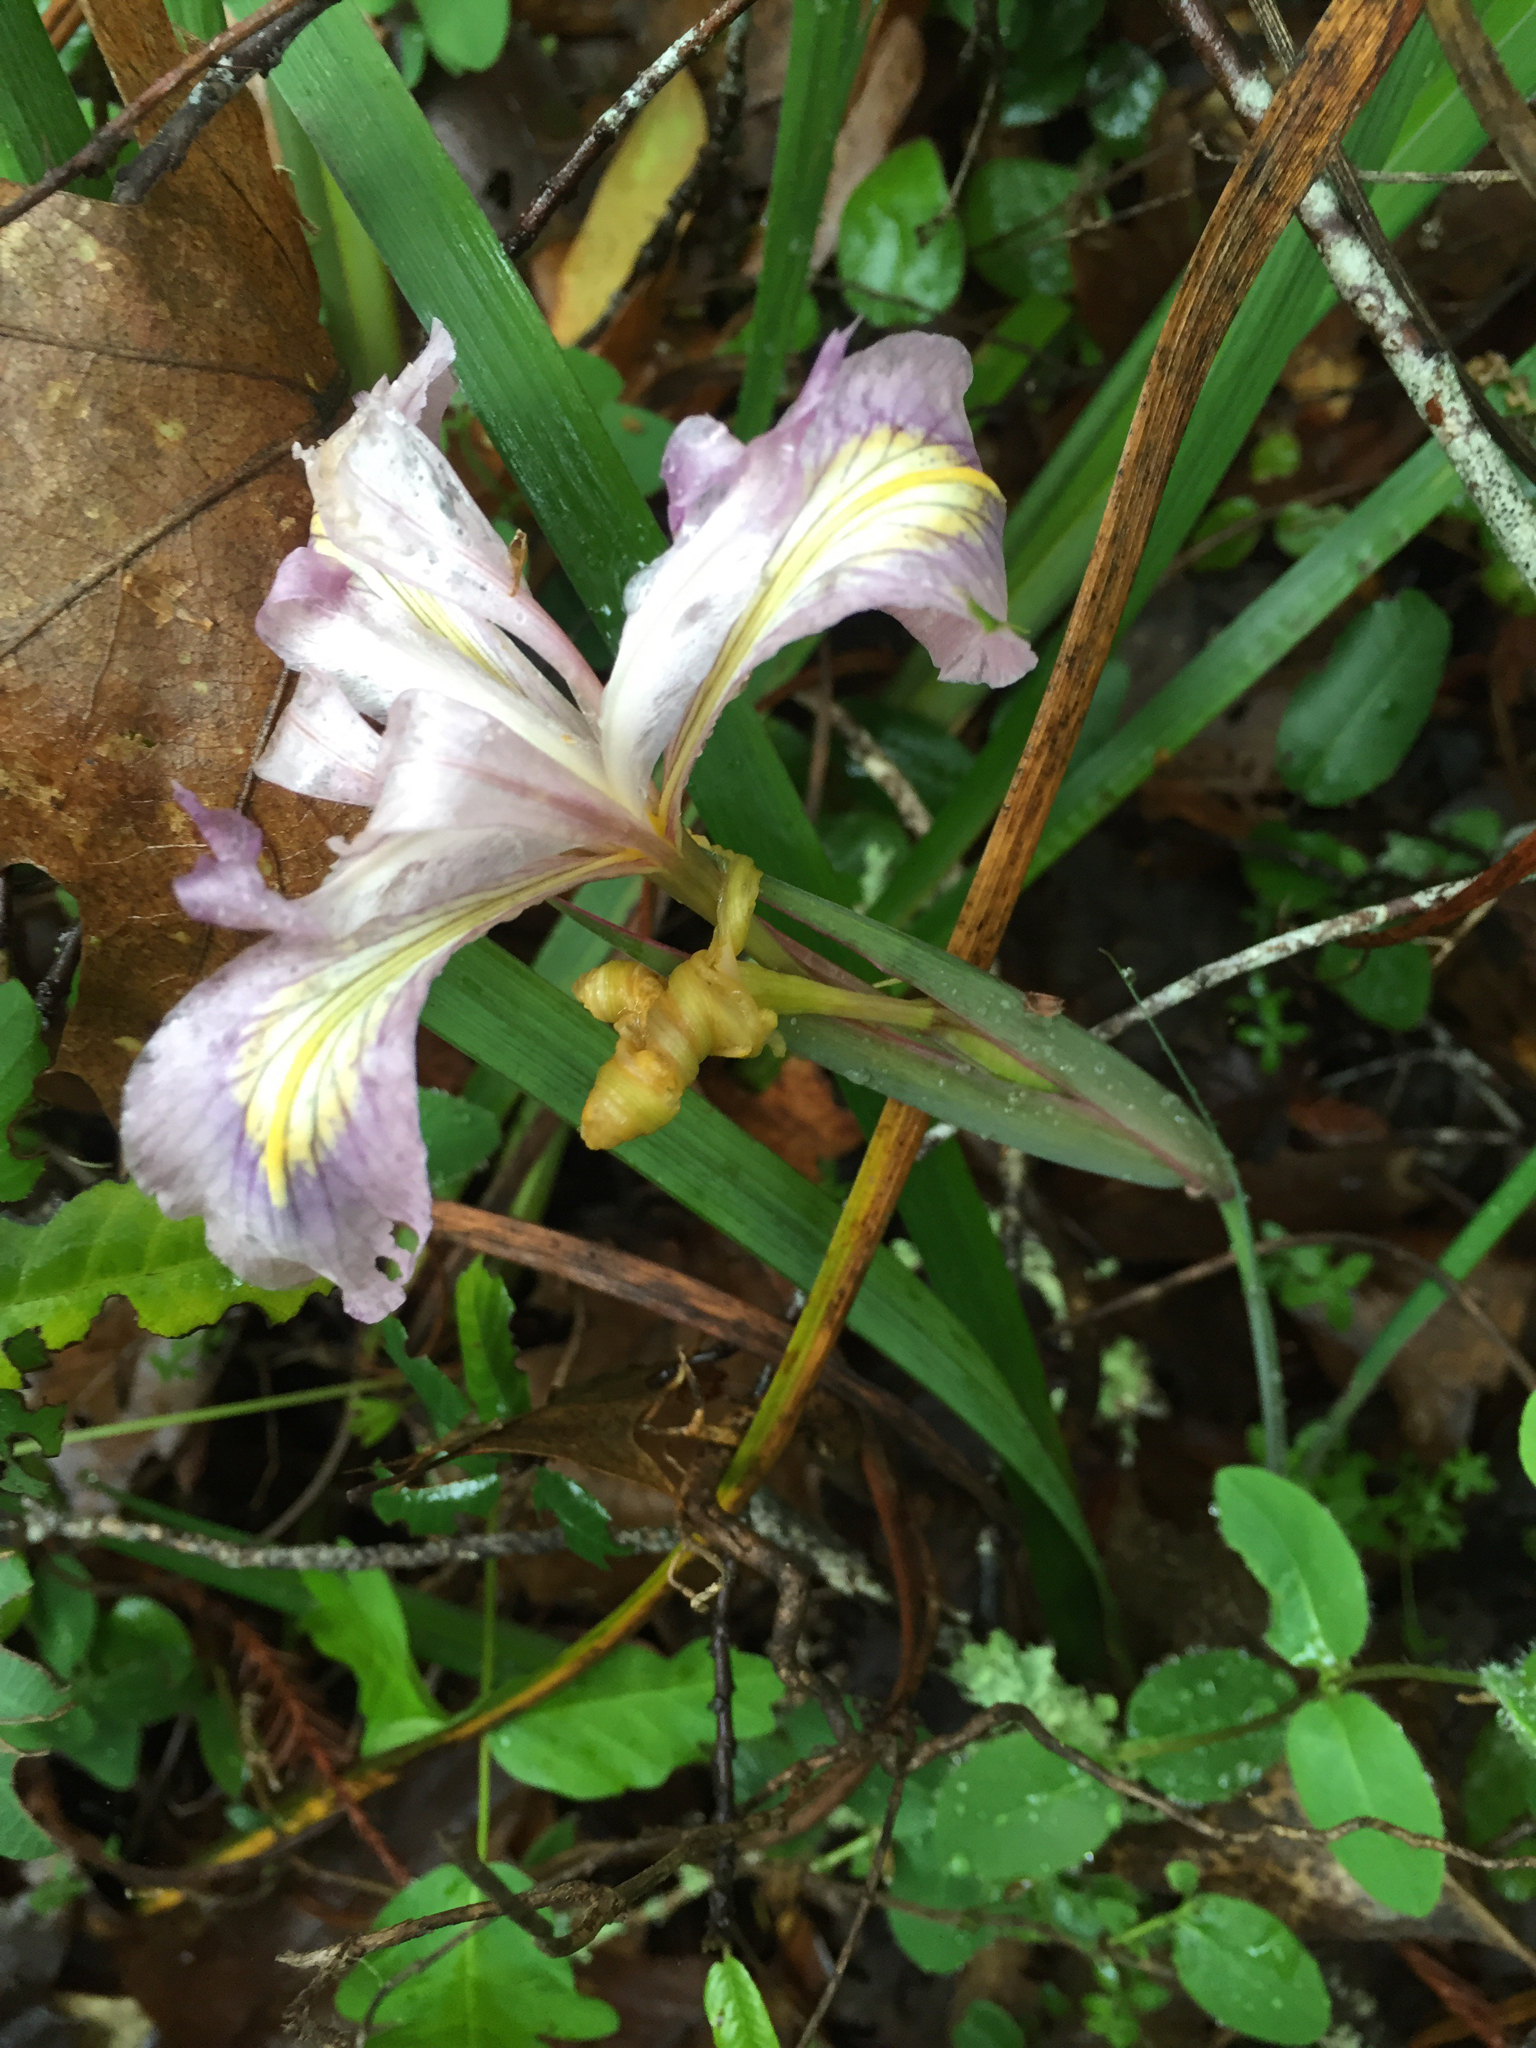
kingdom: Plantae
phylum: Tracheophyta
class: Liliopsida
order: Asparagales
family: Iridaceae
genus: Iris
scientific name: Iris douglasiana
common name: Marin iris
